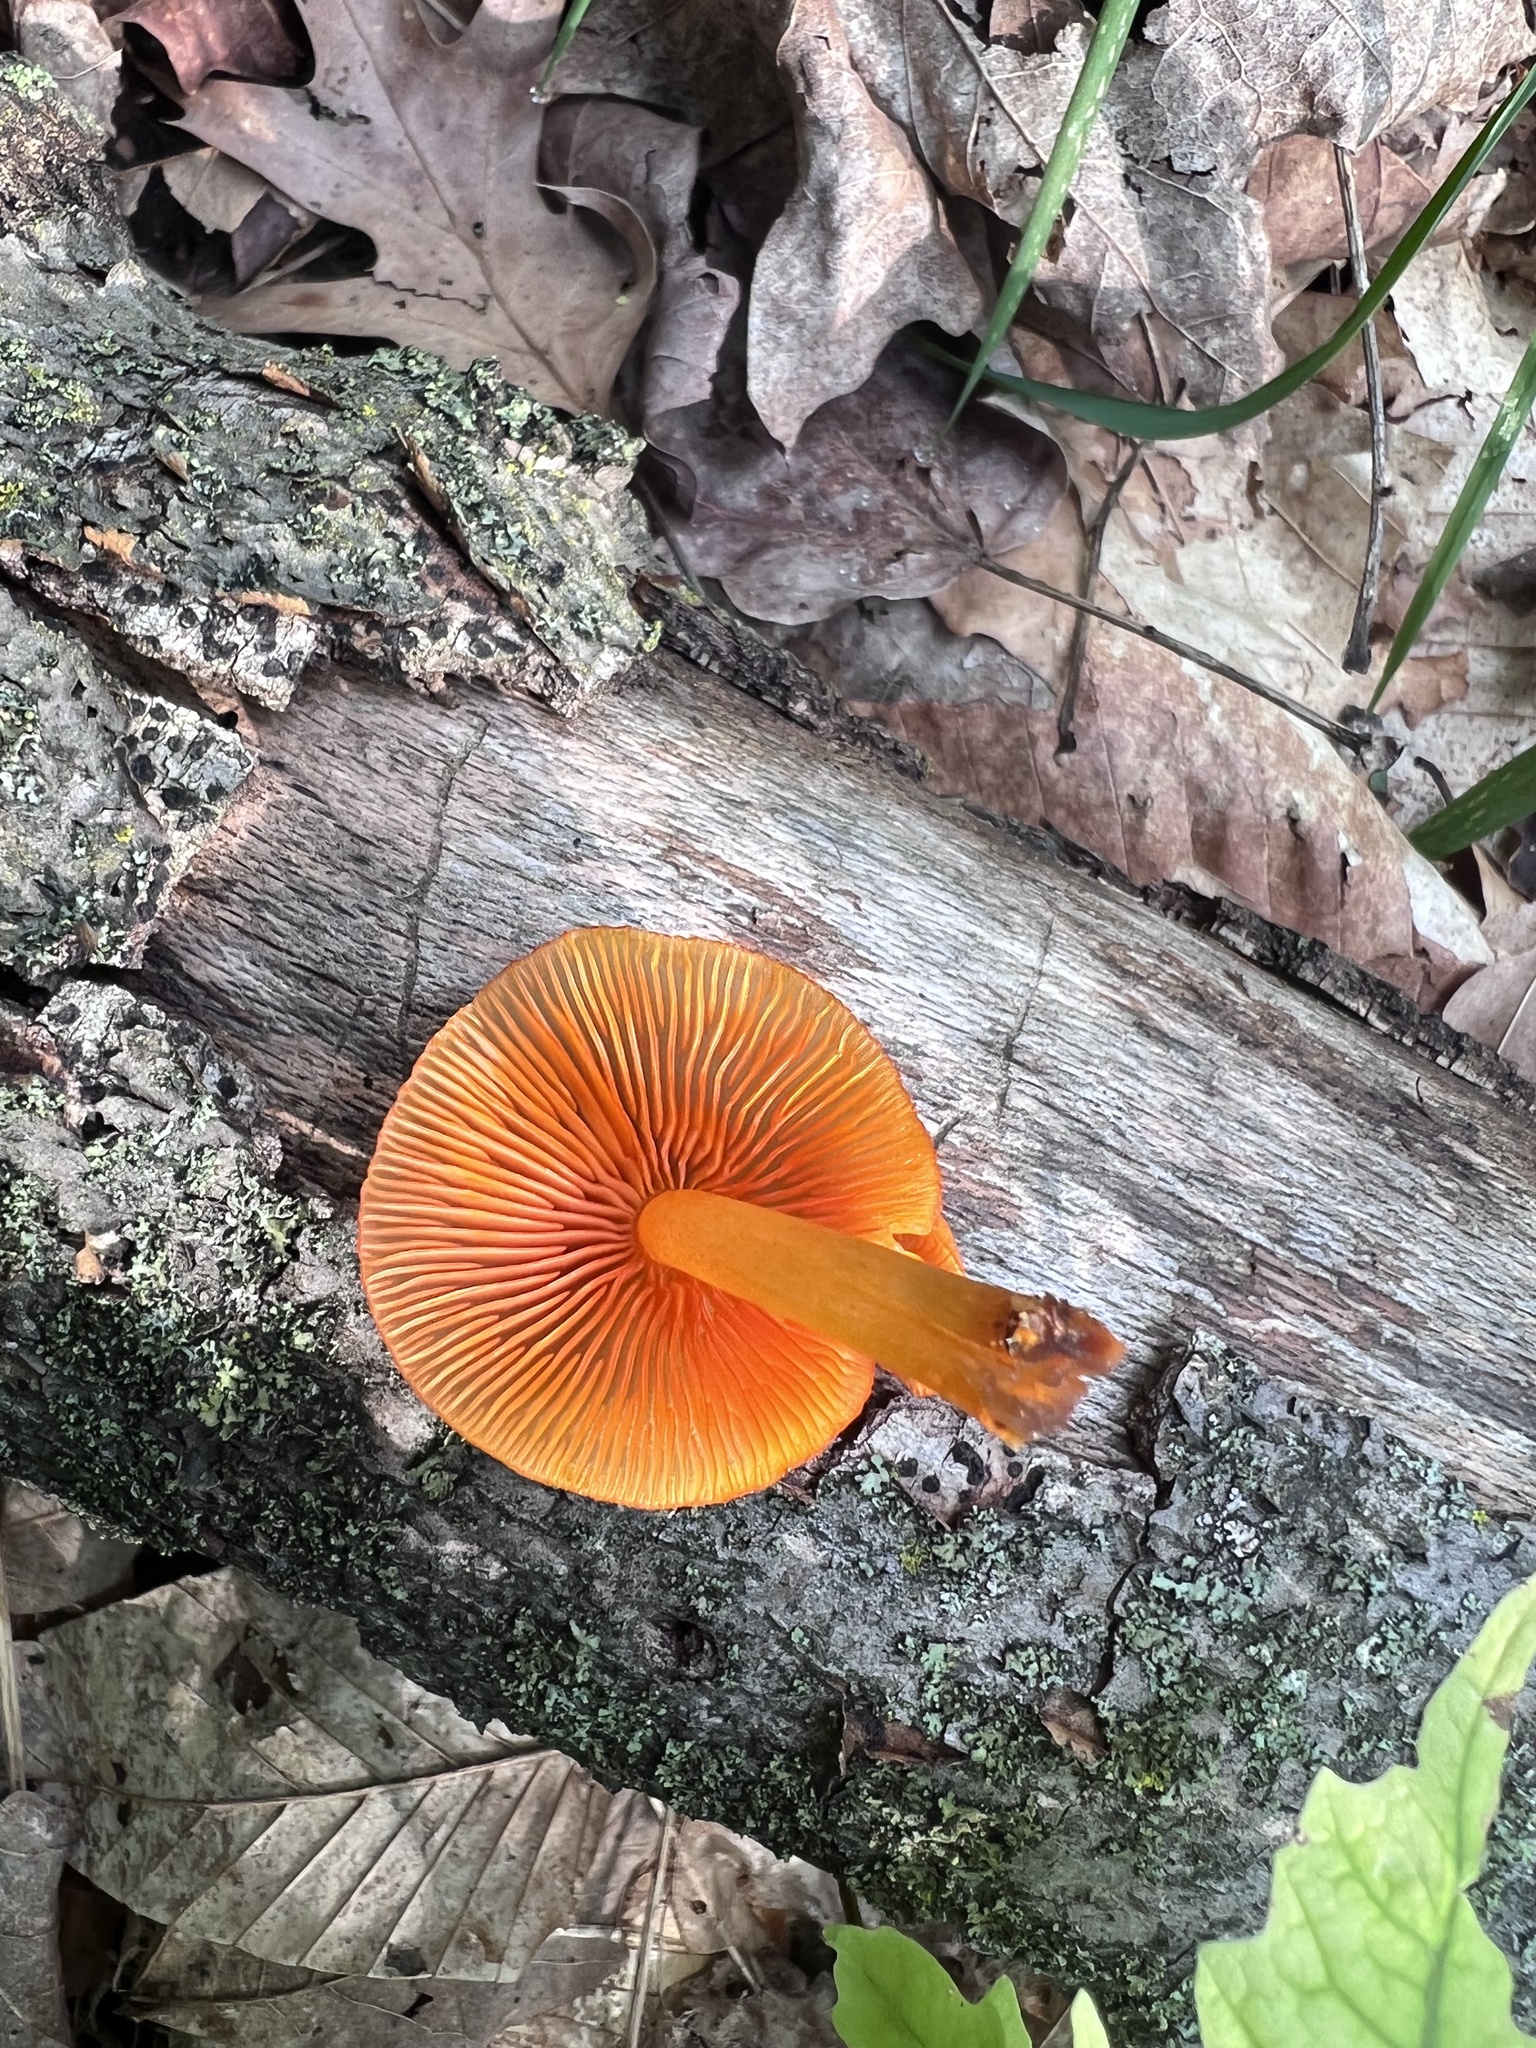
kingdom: Fungi
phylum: Basidiomycota
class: Agaricomycetes
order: Agaricales
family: Mycenaceae
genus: Mycena
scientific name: Mycena leaiana
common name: Orange mycena
